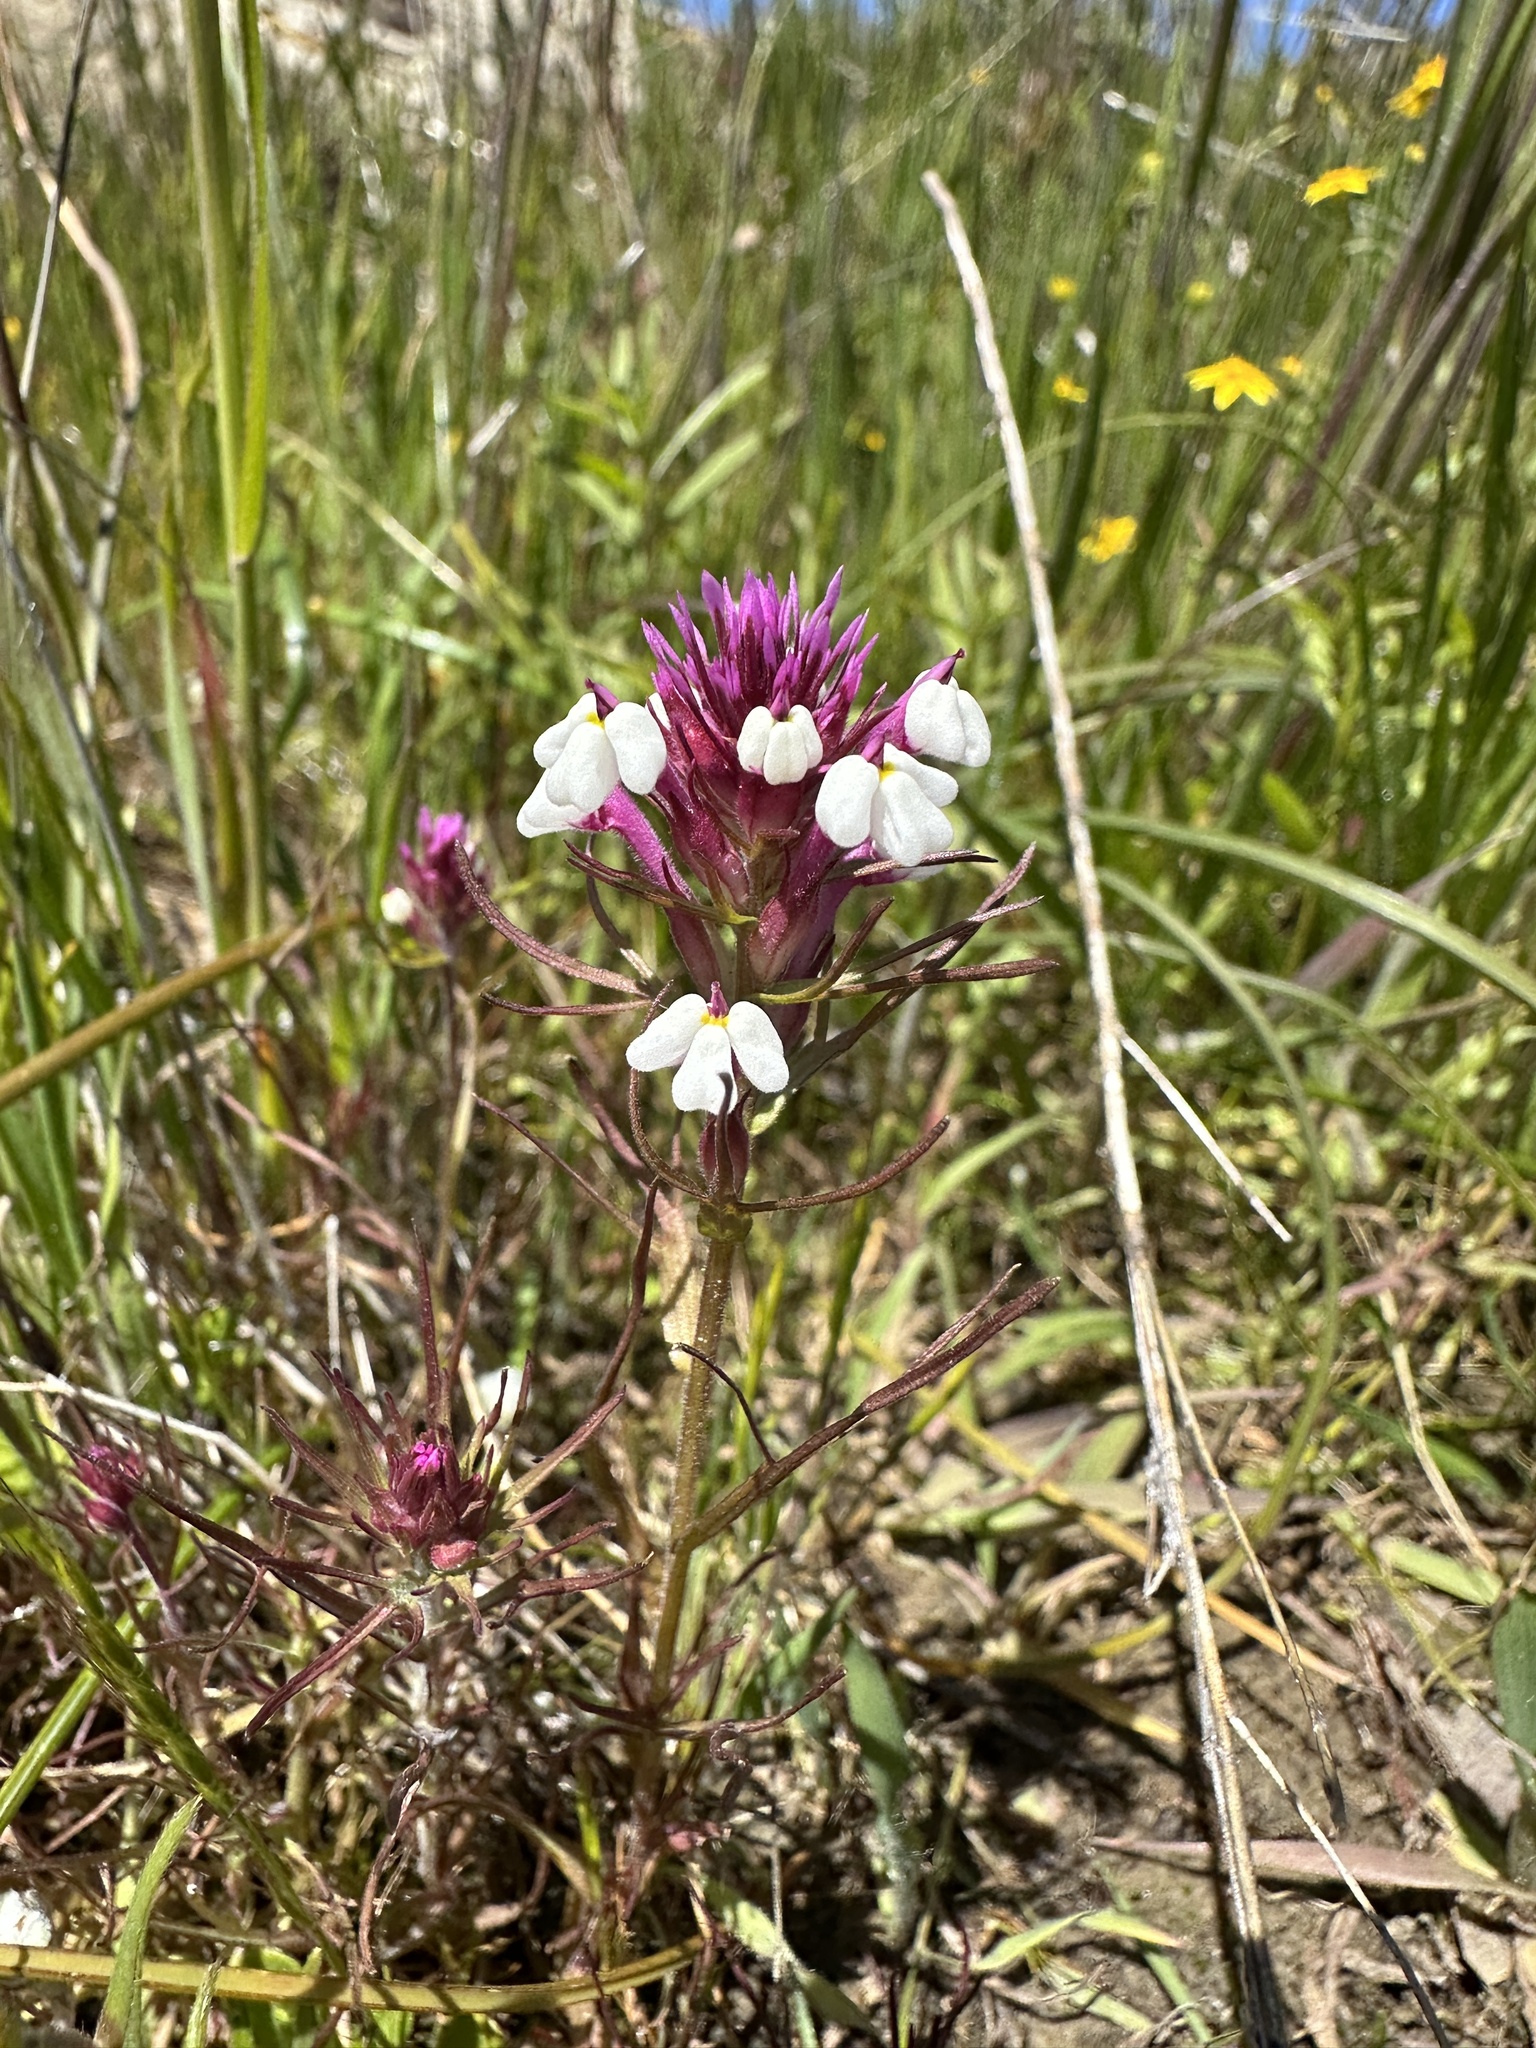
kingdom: Plantae
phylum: Tracheophyta
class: Magnoliopsida
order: Lamiales
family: Orobanchaceae
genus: Triphysaria
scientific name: Triphysaria eriantha
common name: Johnny-tuck
